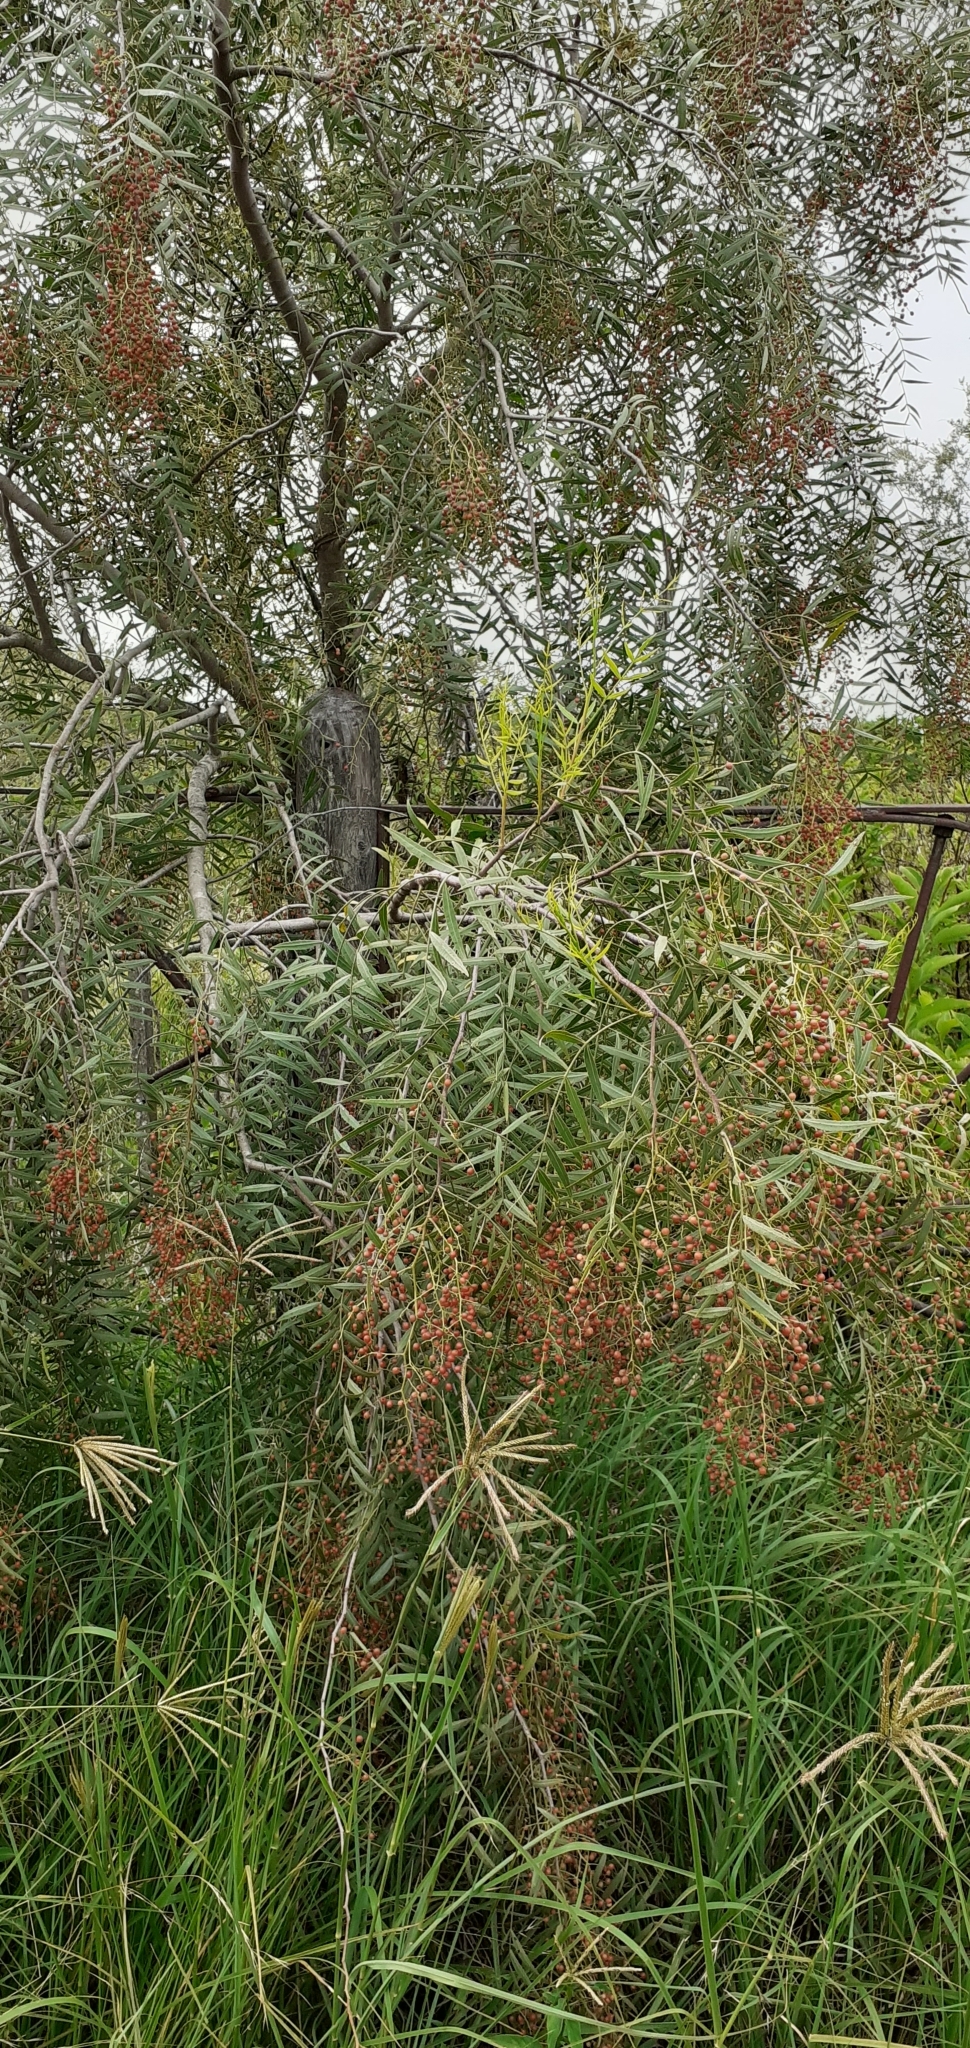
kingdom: Plantae
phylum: Tracheophyta
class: Magnoliopsida
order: Sapindales
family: Anacardiaceae
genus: Schinus
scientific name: Schinus molle
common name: Peruvian peppertree
